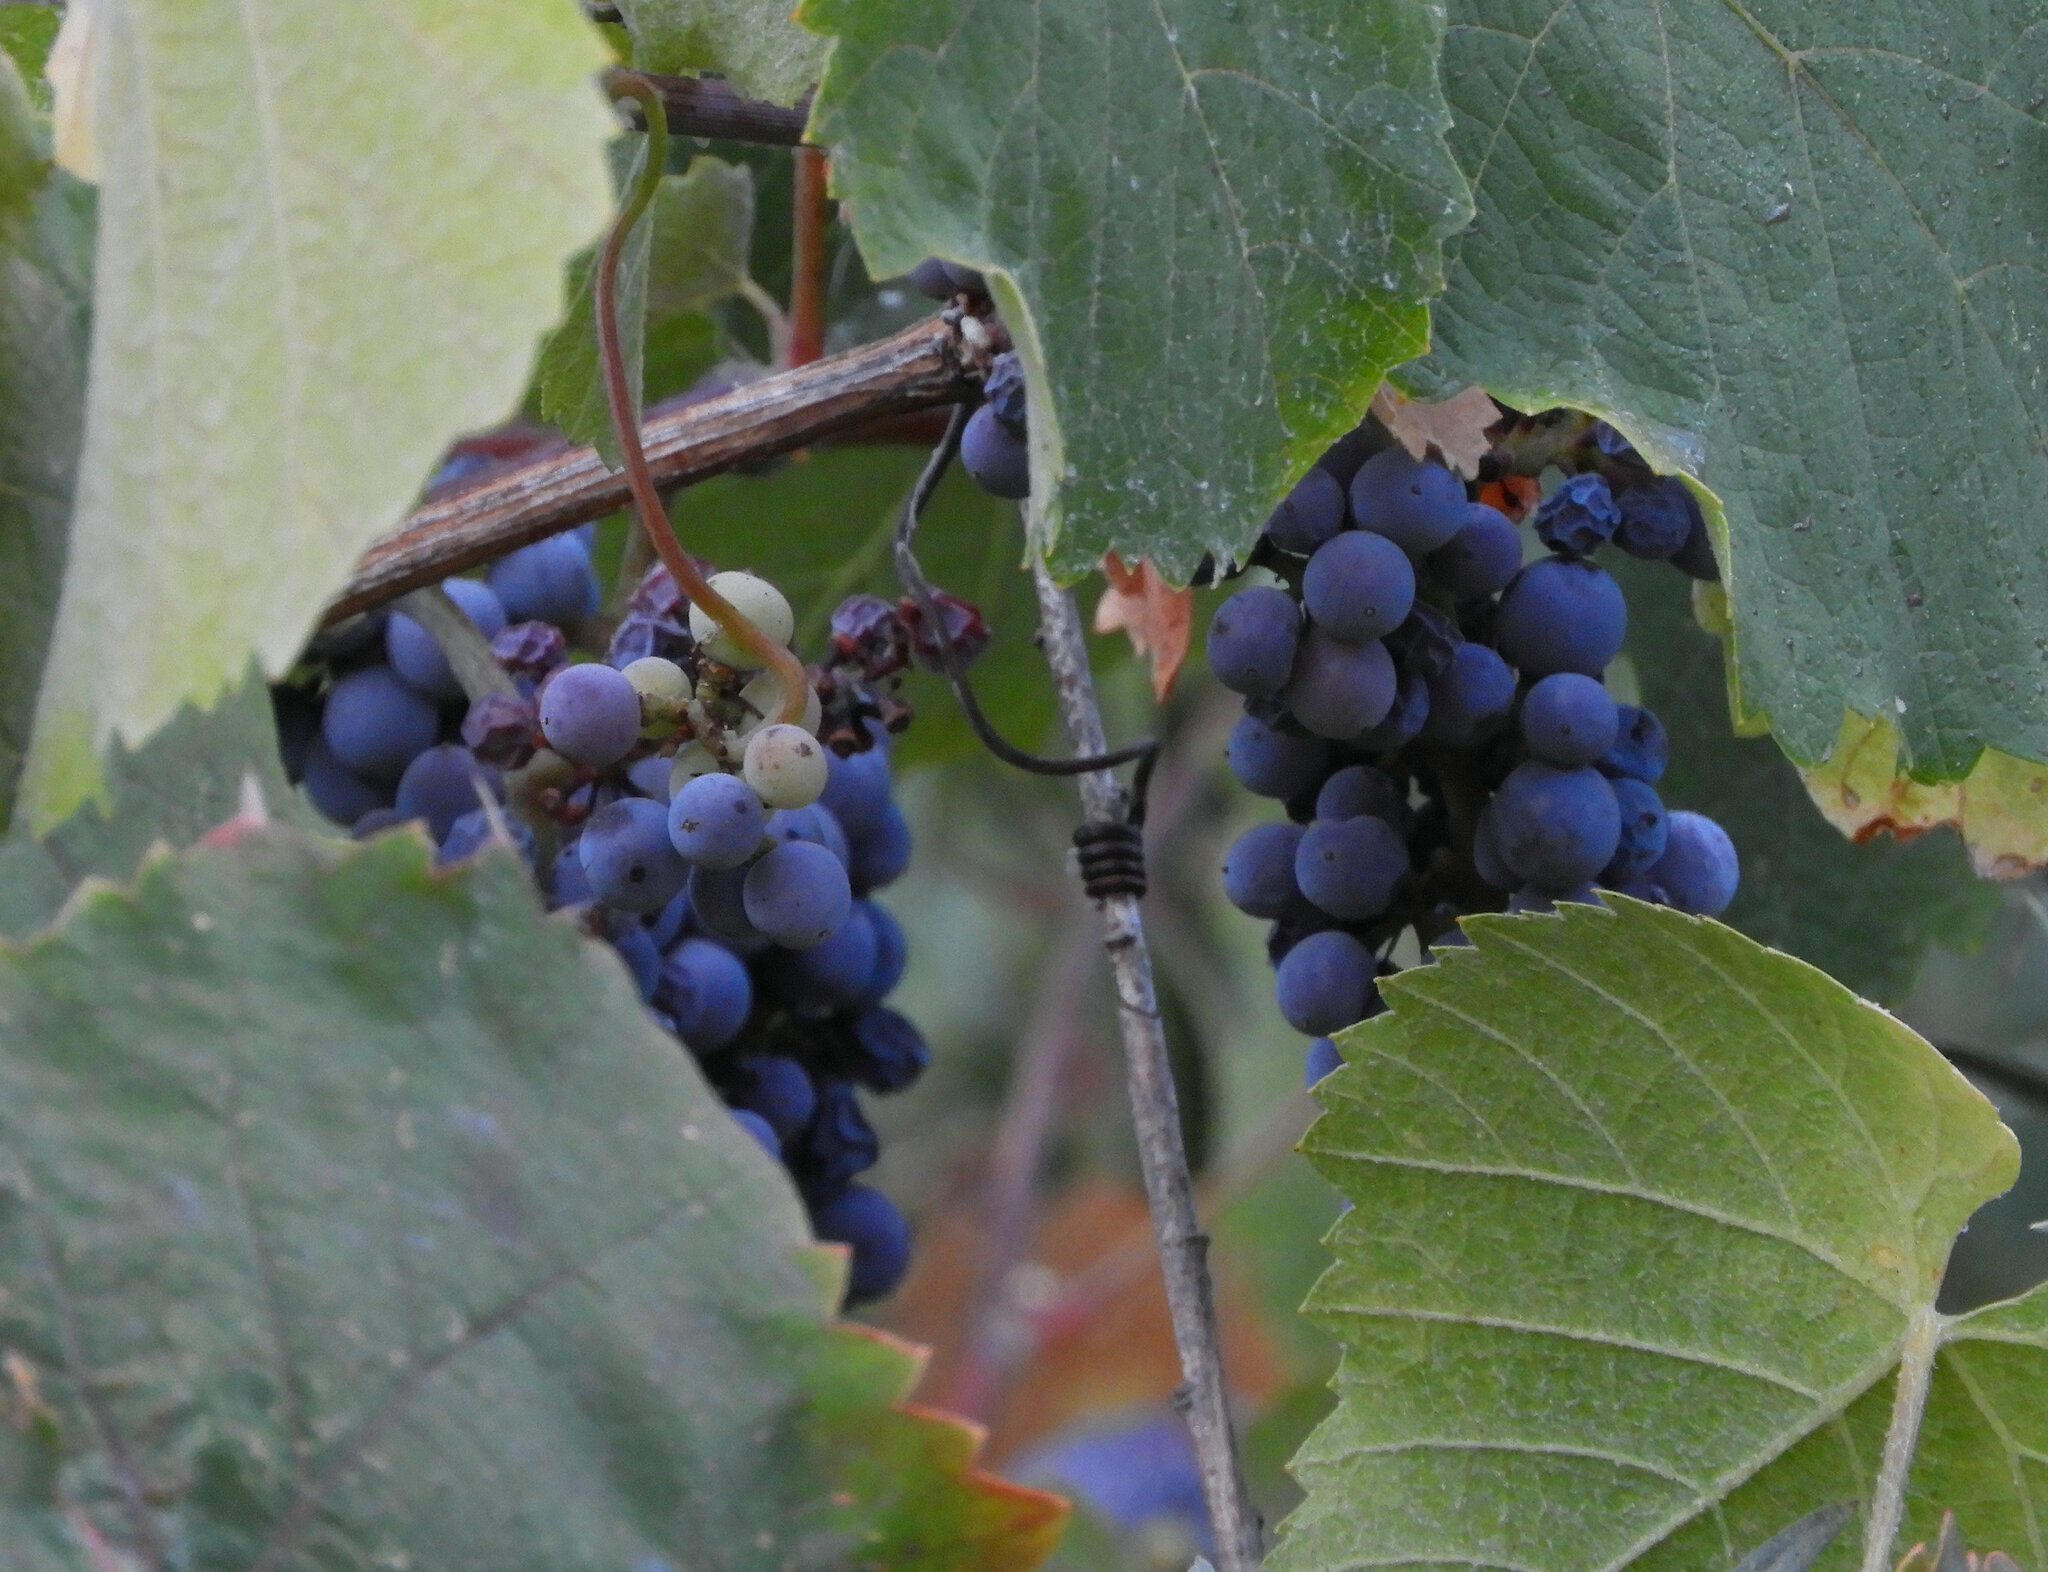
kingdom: Plantae
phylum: Tracheophyta
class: Magnoliopsida
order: Vitales
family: Vitaceae
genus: Vitis
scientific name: Vitis californica
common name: California wild grape
